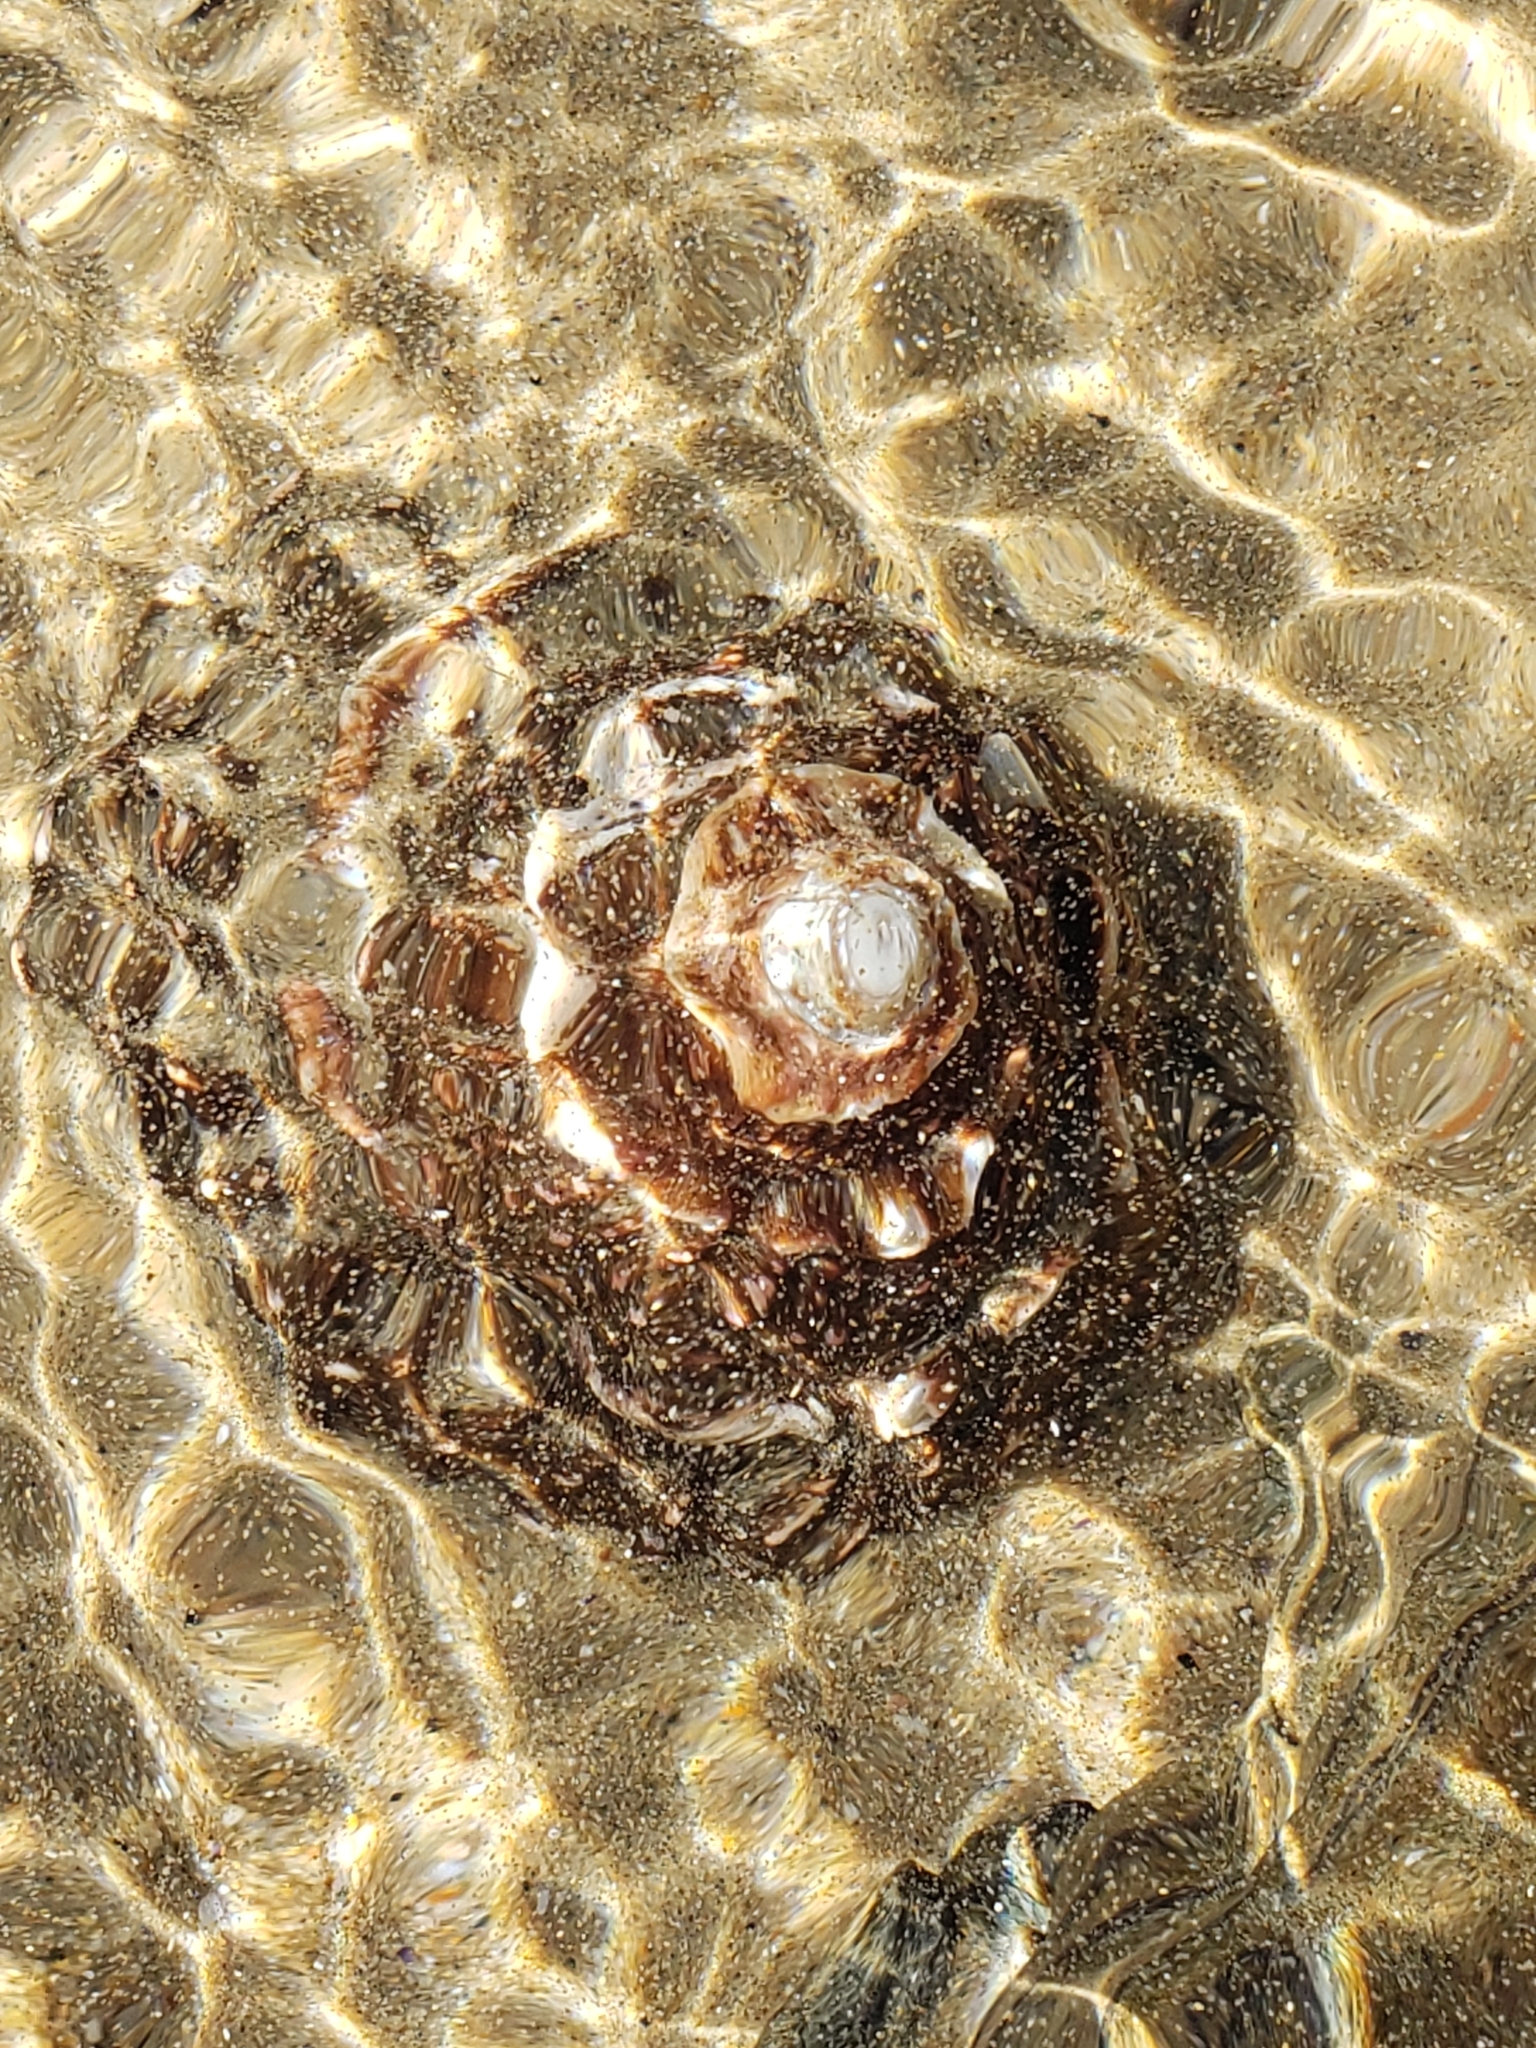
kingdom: Animalia
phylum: Mollusca
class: Gastropoda
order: Trochida
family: Turbinidae
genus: Megastraea
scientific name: Megastraea undosa
